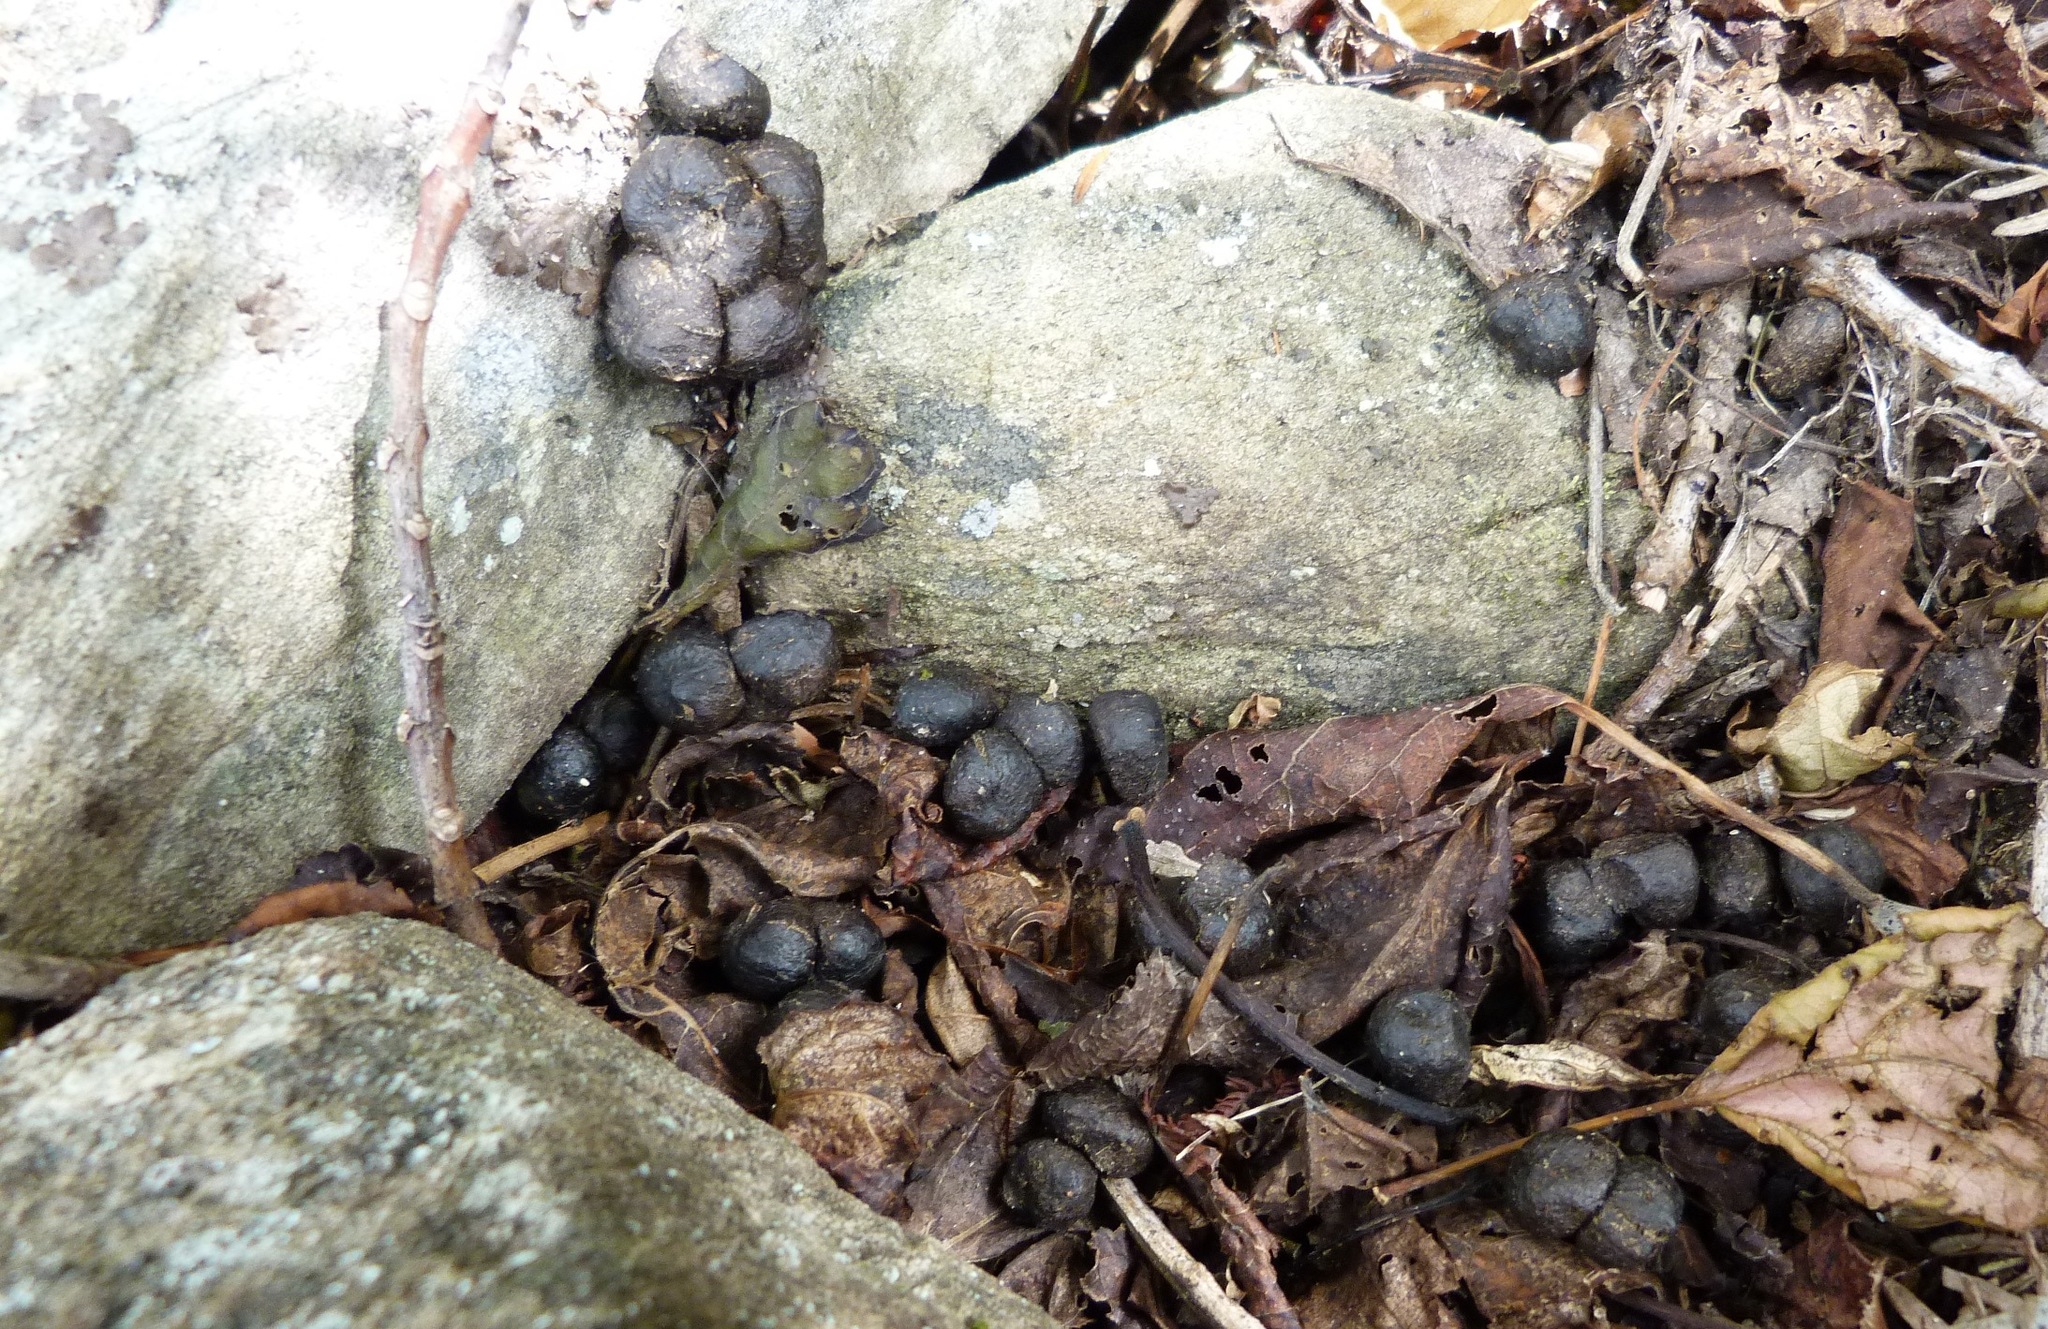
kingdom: Animalia
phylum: Chordata
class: Mammalia
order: Artiodactyla
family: Bovidae
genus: Capra
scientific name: Capra hircus
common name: Domestic goat
